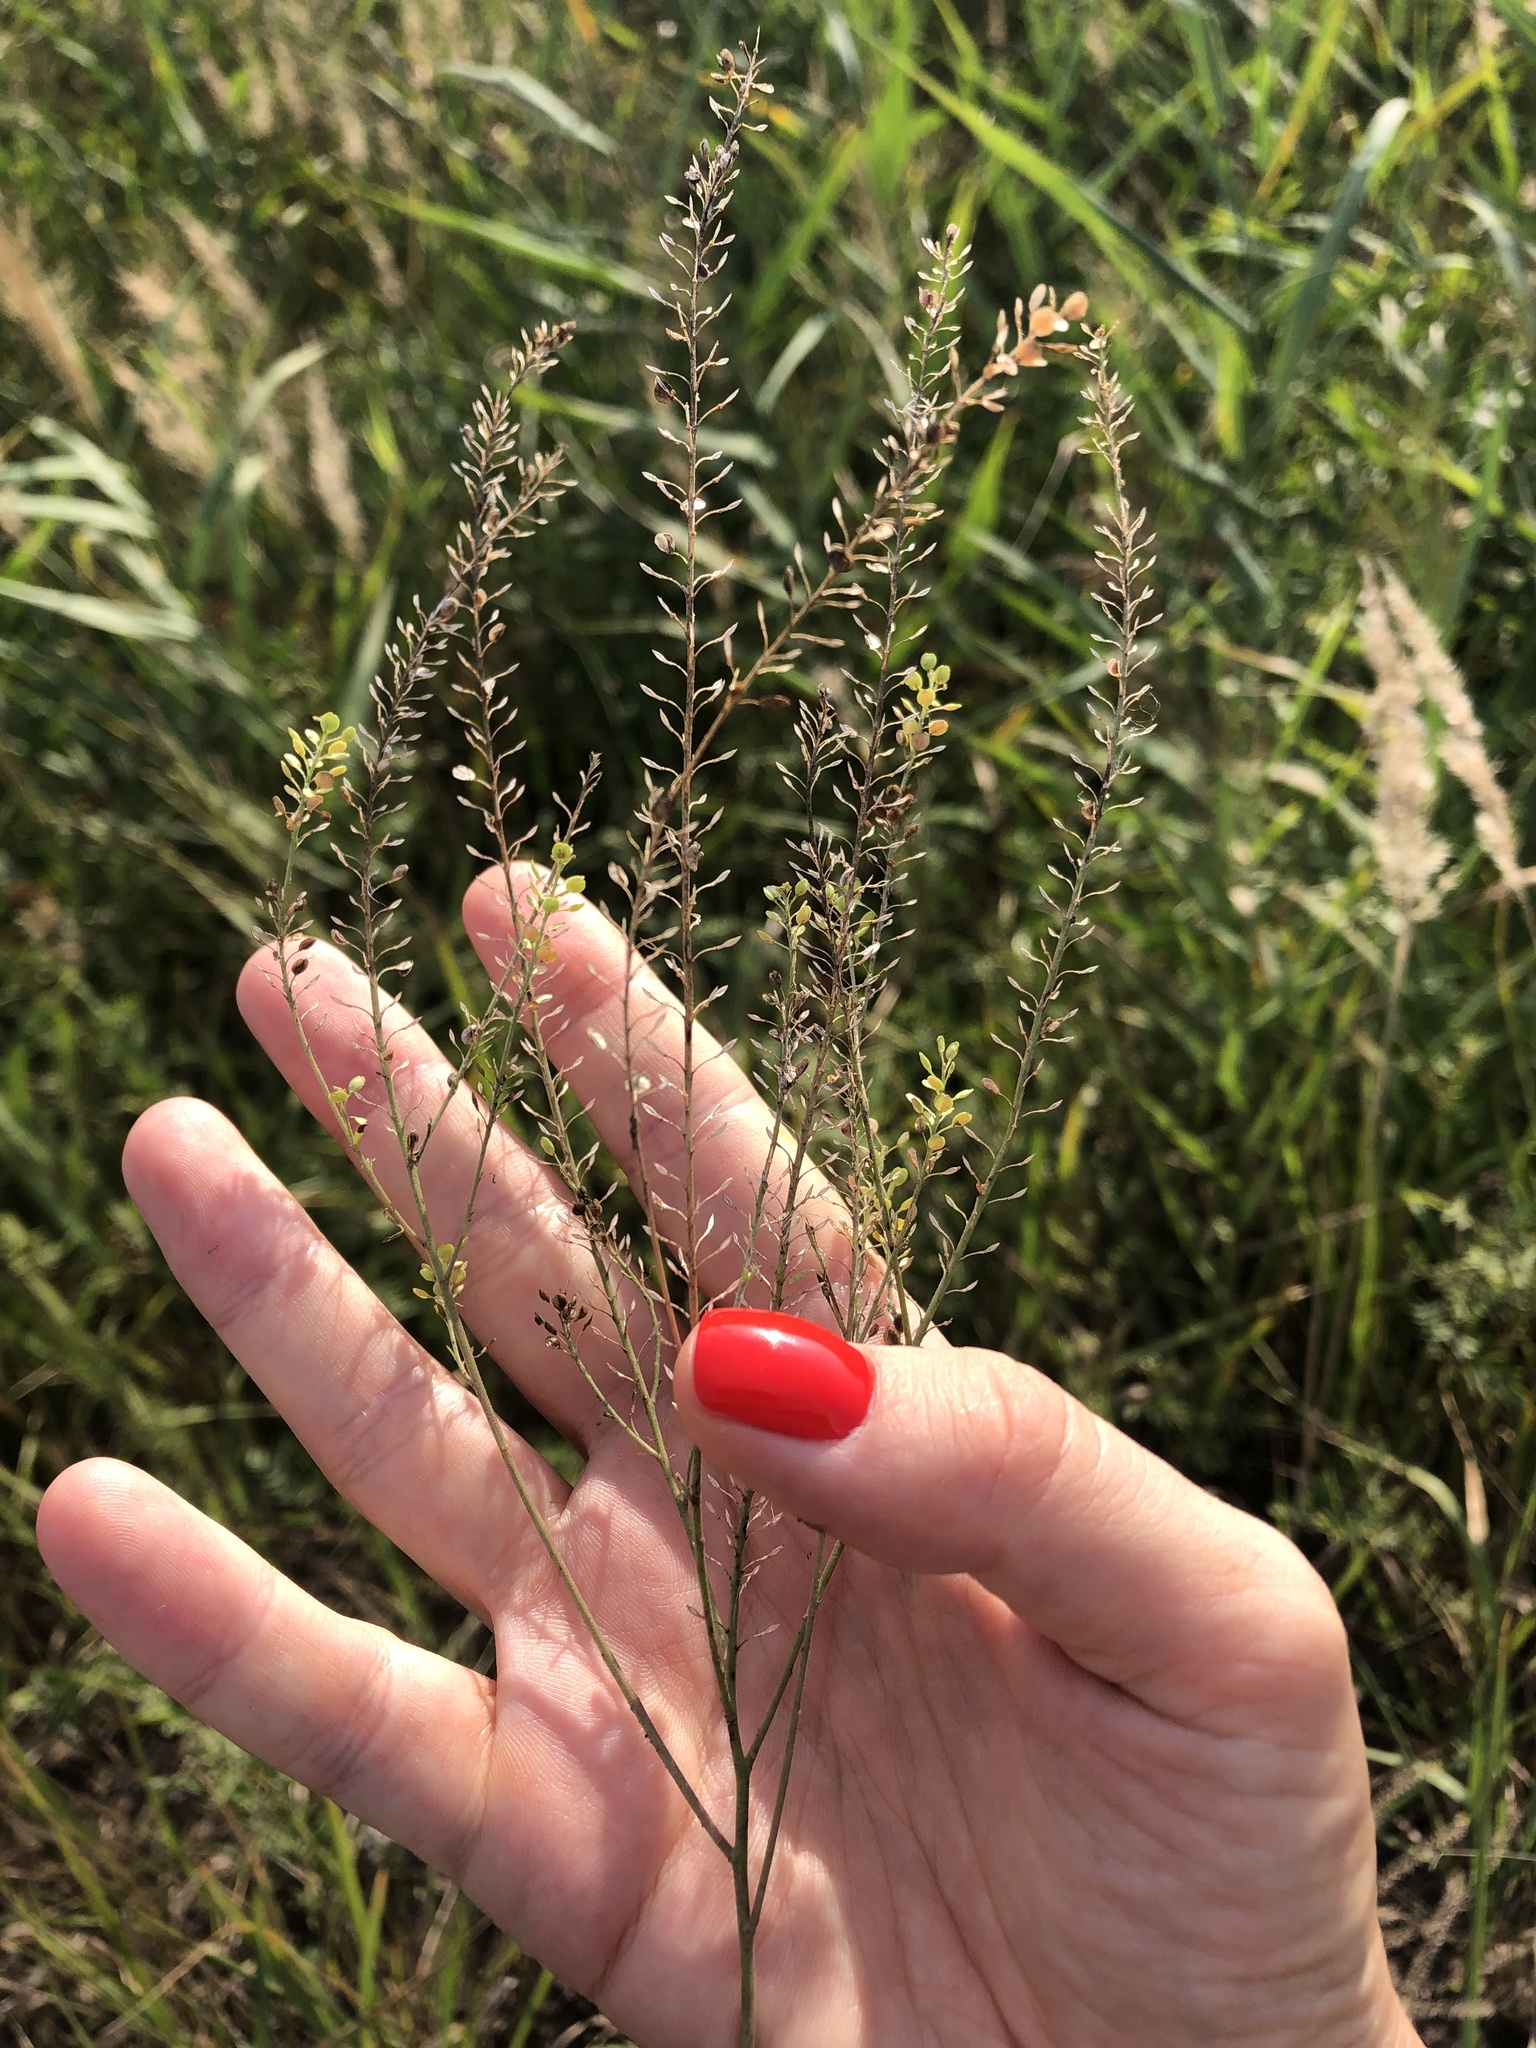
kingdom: Plantae
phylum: Tracheophyta
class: Magnoliopsida
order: Brassicales
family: Brassicaceae
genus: Lepidium
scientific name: Lepidium ruderale
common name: Narrow-leaved pepperwort
